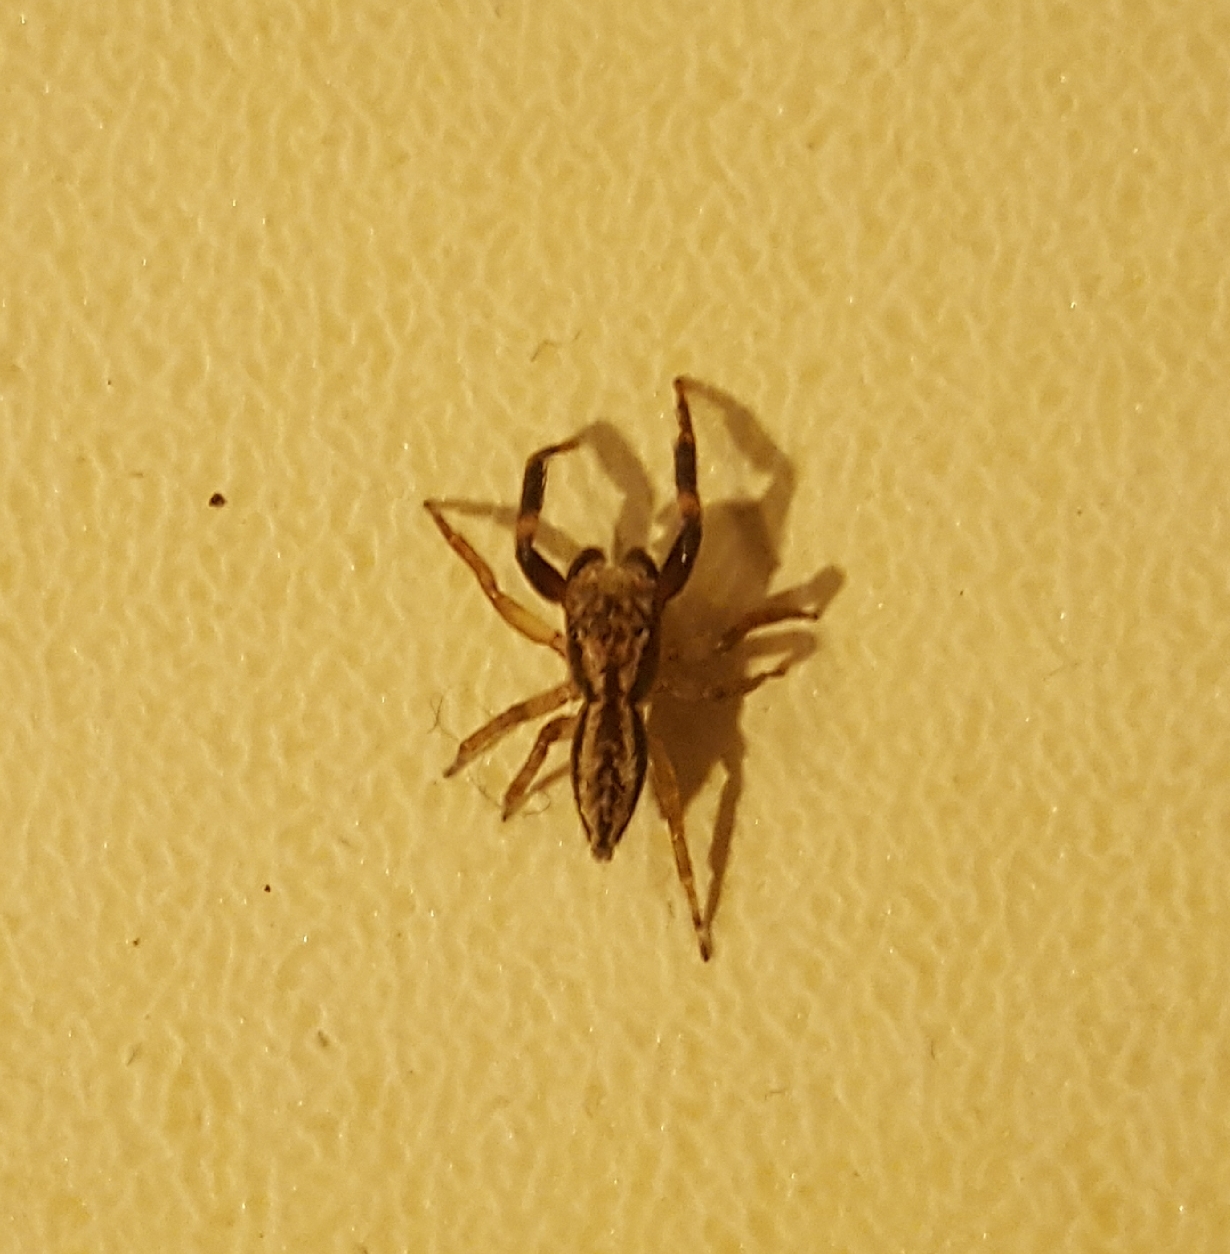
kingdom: Animalia
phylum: Arthropoda
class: Arachnida
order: Araneae
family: Salticidae
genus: Trite
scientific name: Trite auricoma
